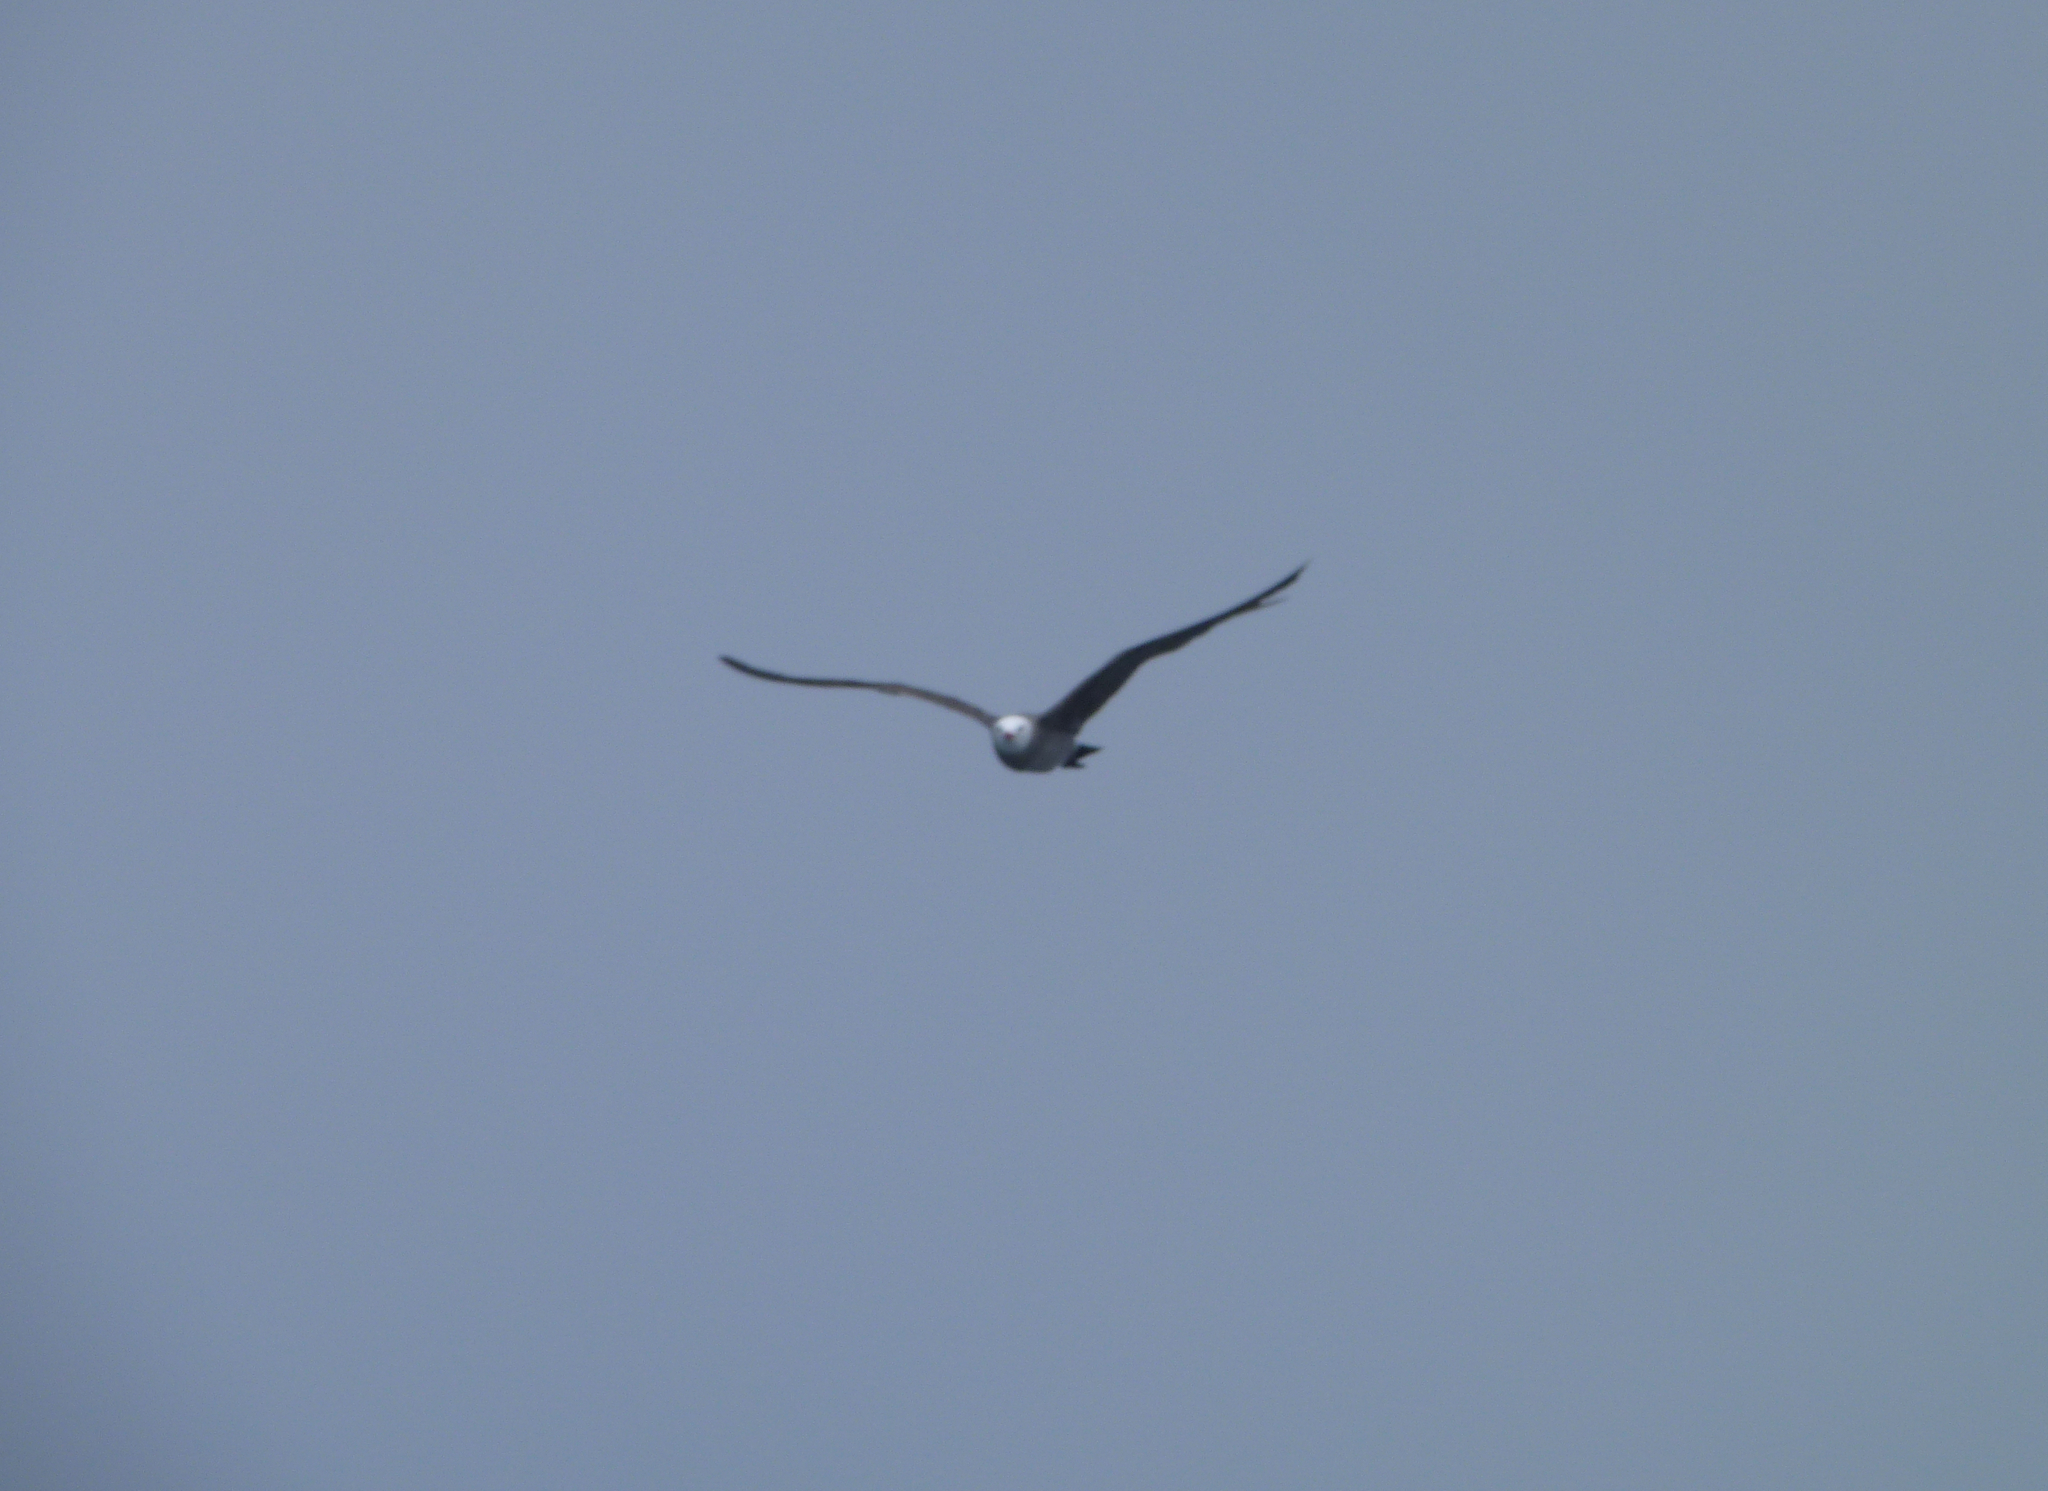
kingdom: Animalia
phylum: Chordata
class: Aves
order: Charadriiformes
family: Laridae
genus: Larus
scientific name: Larus heermanni
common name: Heermann's gull
